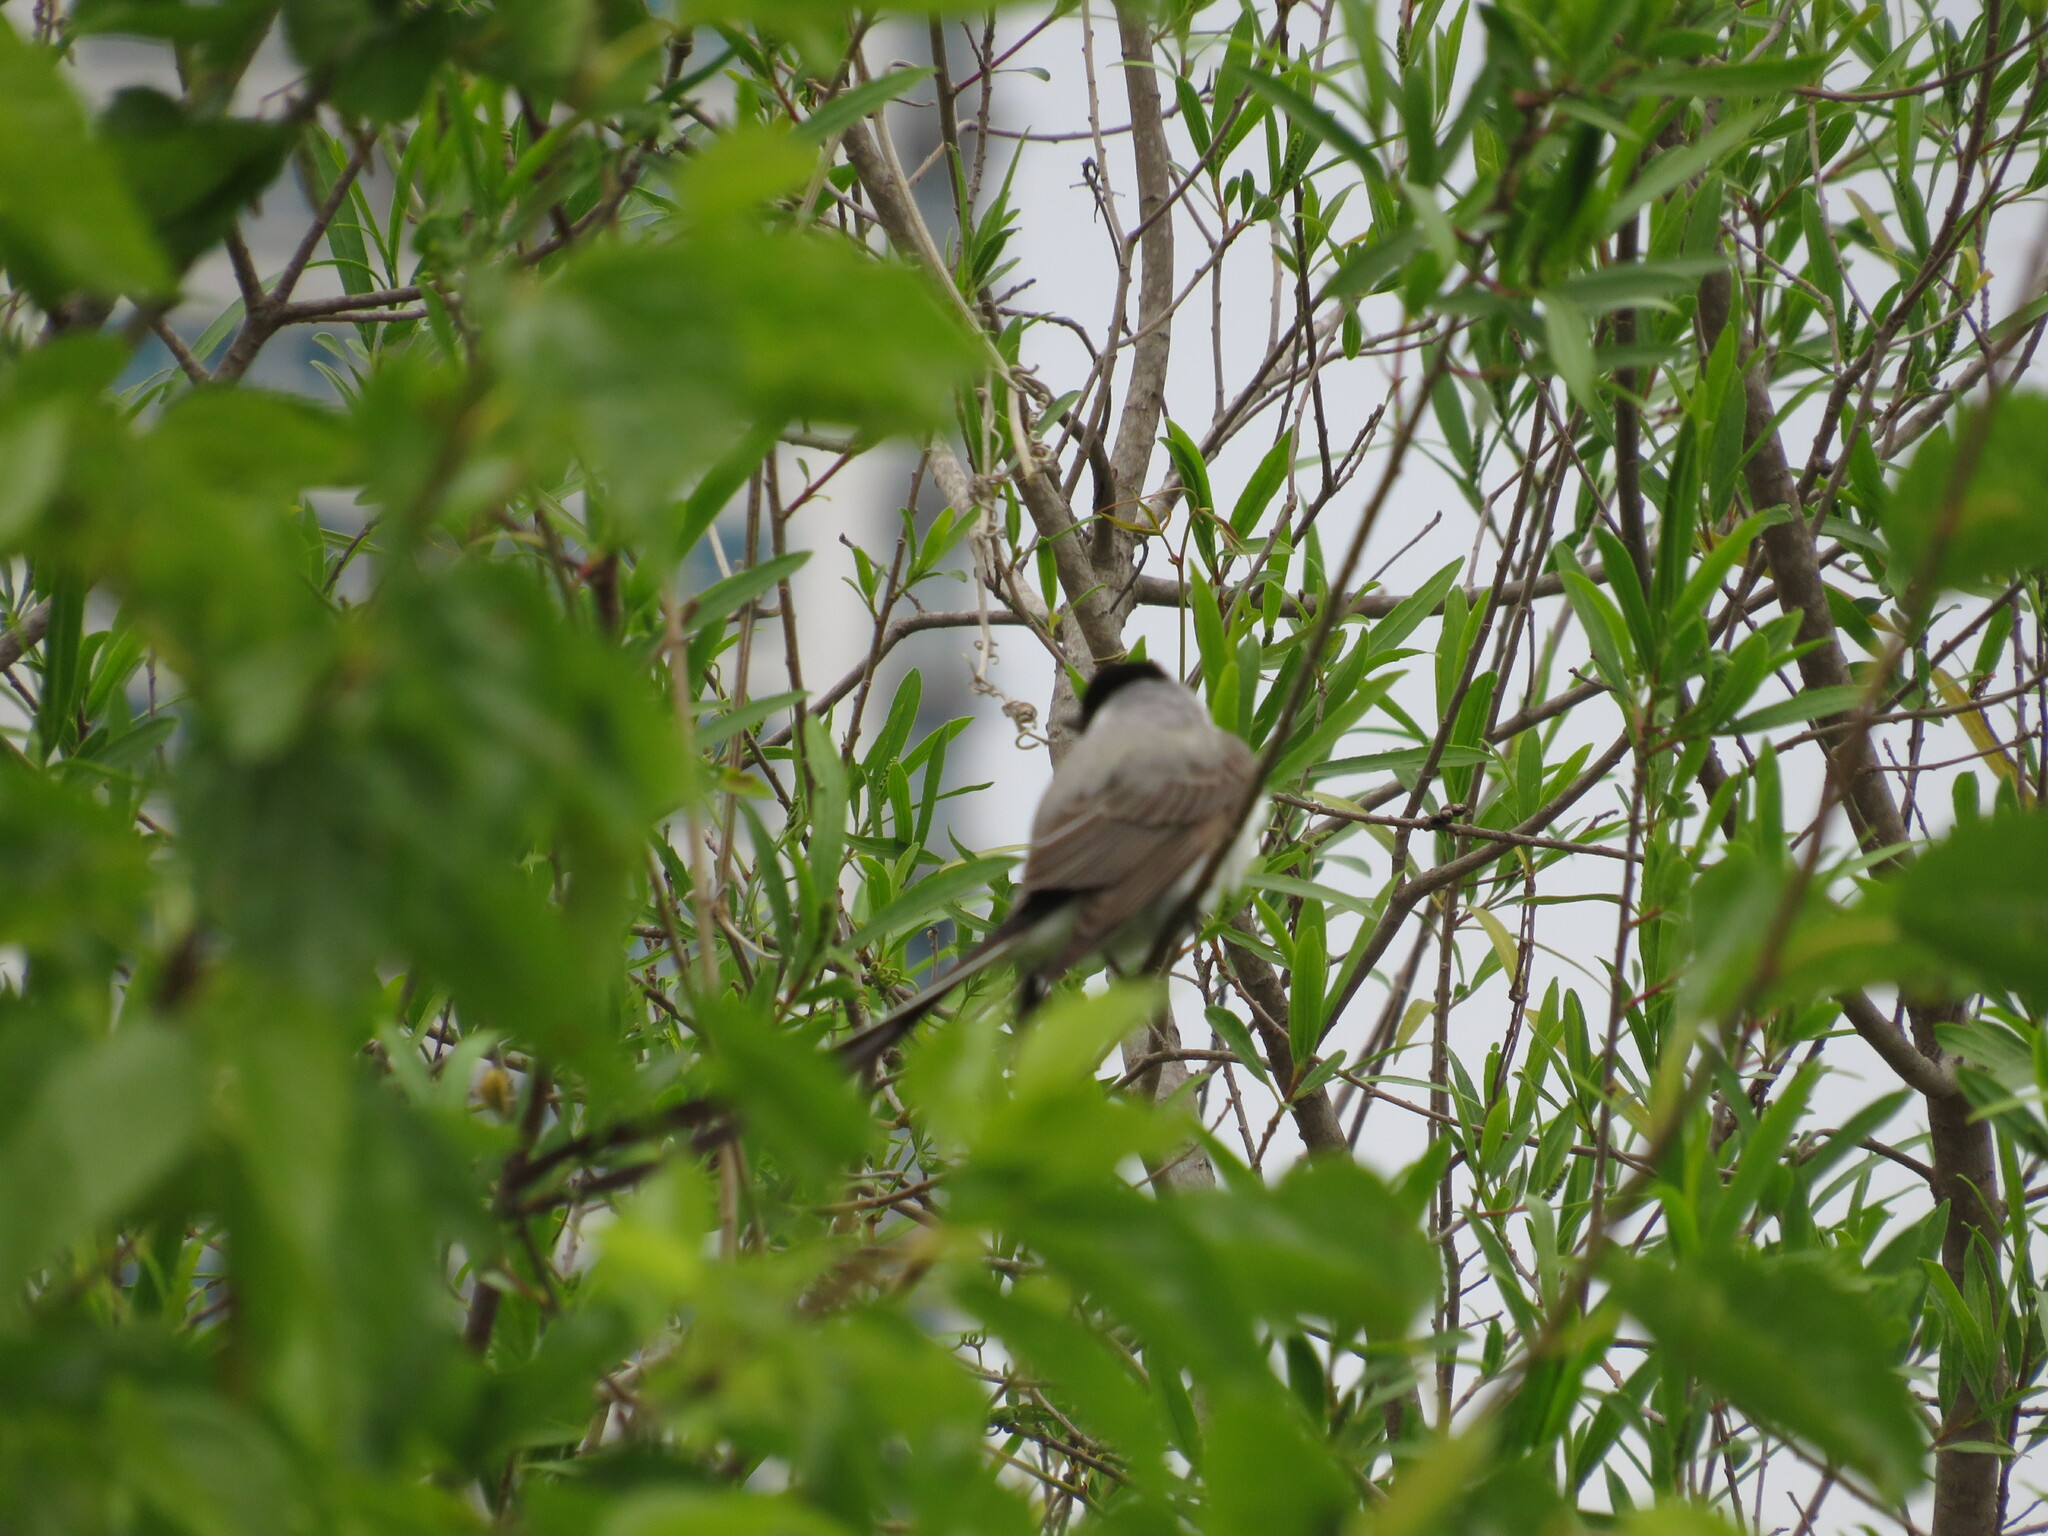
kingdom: Animalia
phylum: Chordata
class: Aves
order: Passeriformes
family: Tyrannidae
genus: Tyrannus
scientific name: Tyrannus savana
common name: Fork-tailed flycatcher
